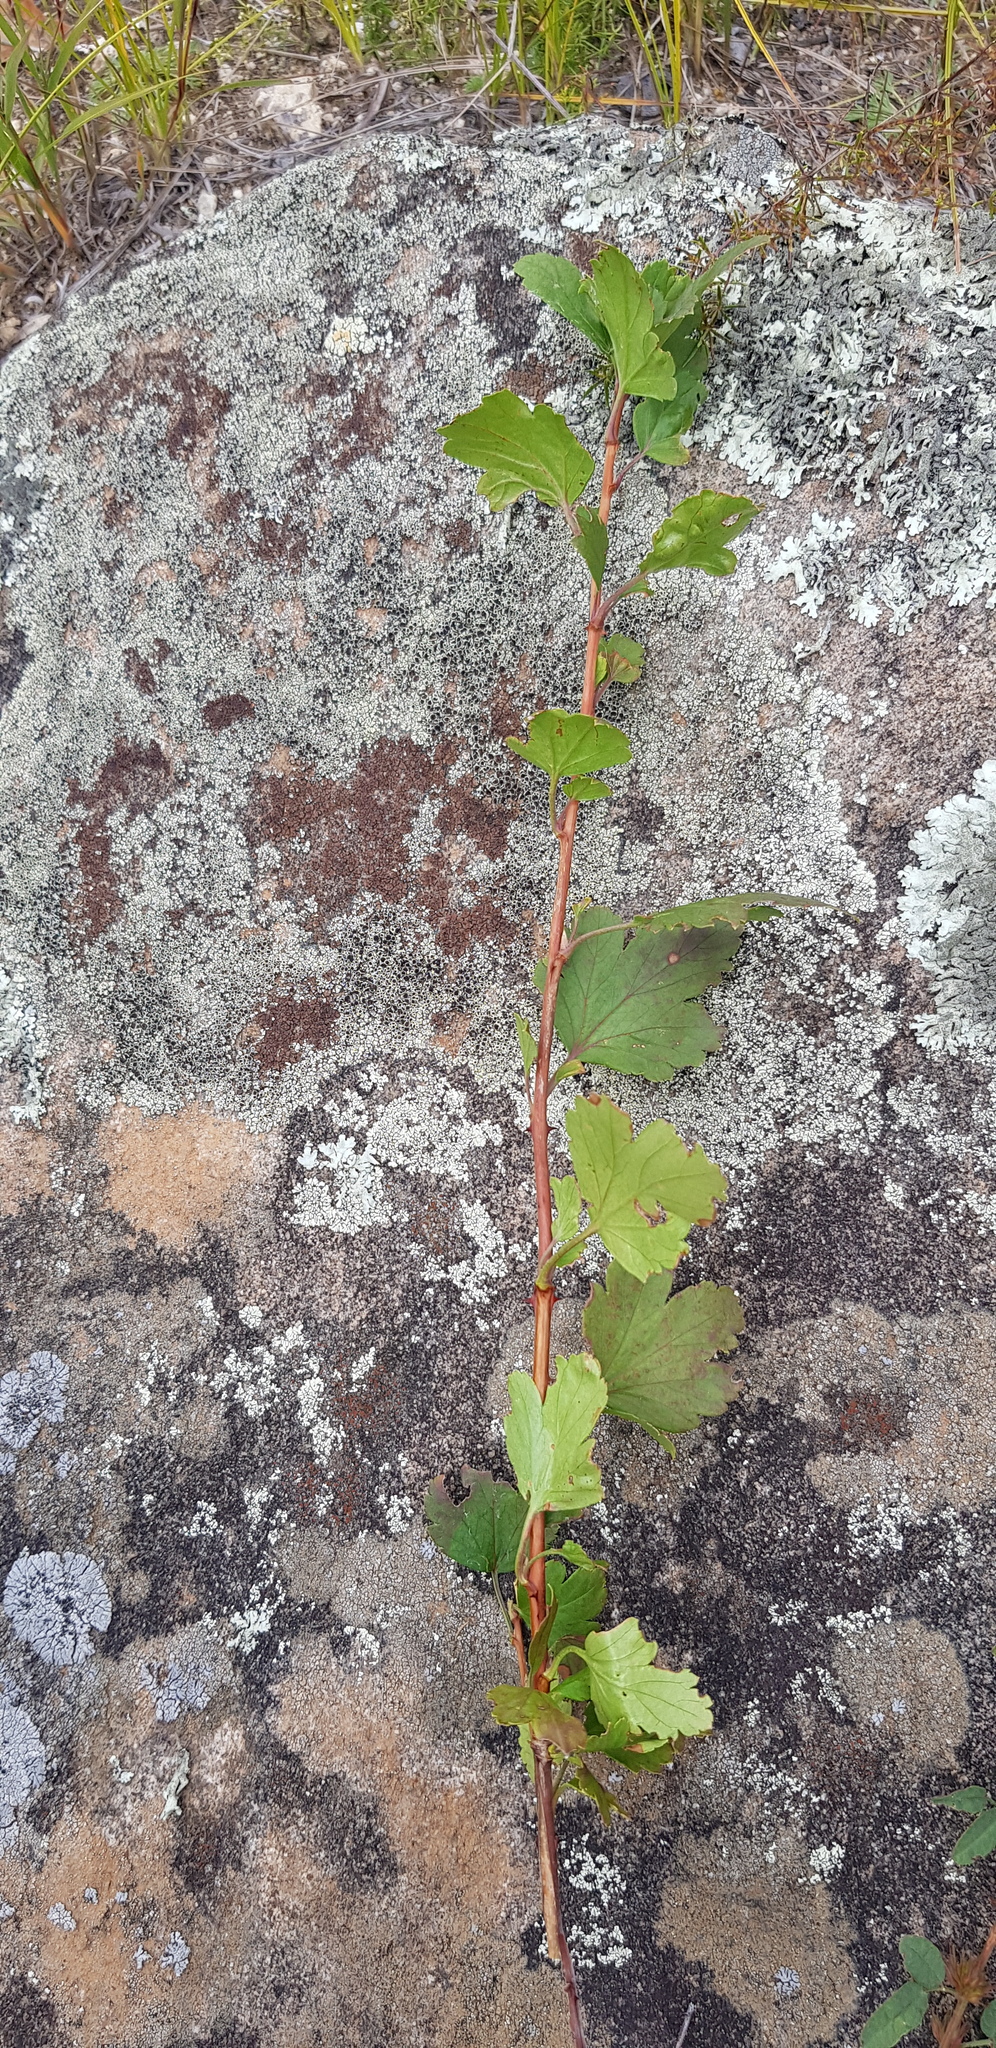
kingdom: Plantae
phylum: Tracheophyta
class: Magnoliopsida
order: Saxifragales
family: Grossulariaceae
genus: Ribes
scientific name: Ribes pulchellum
